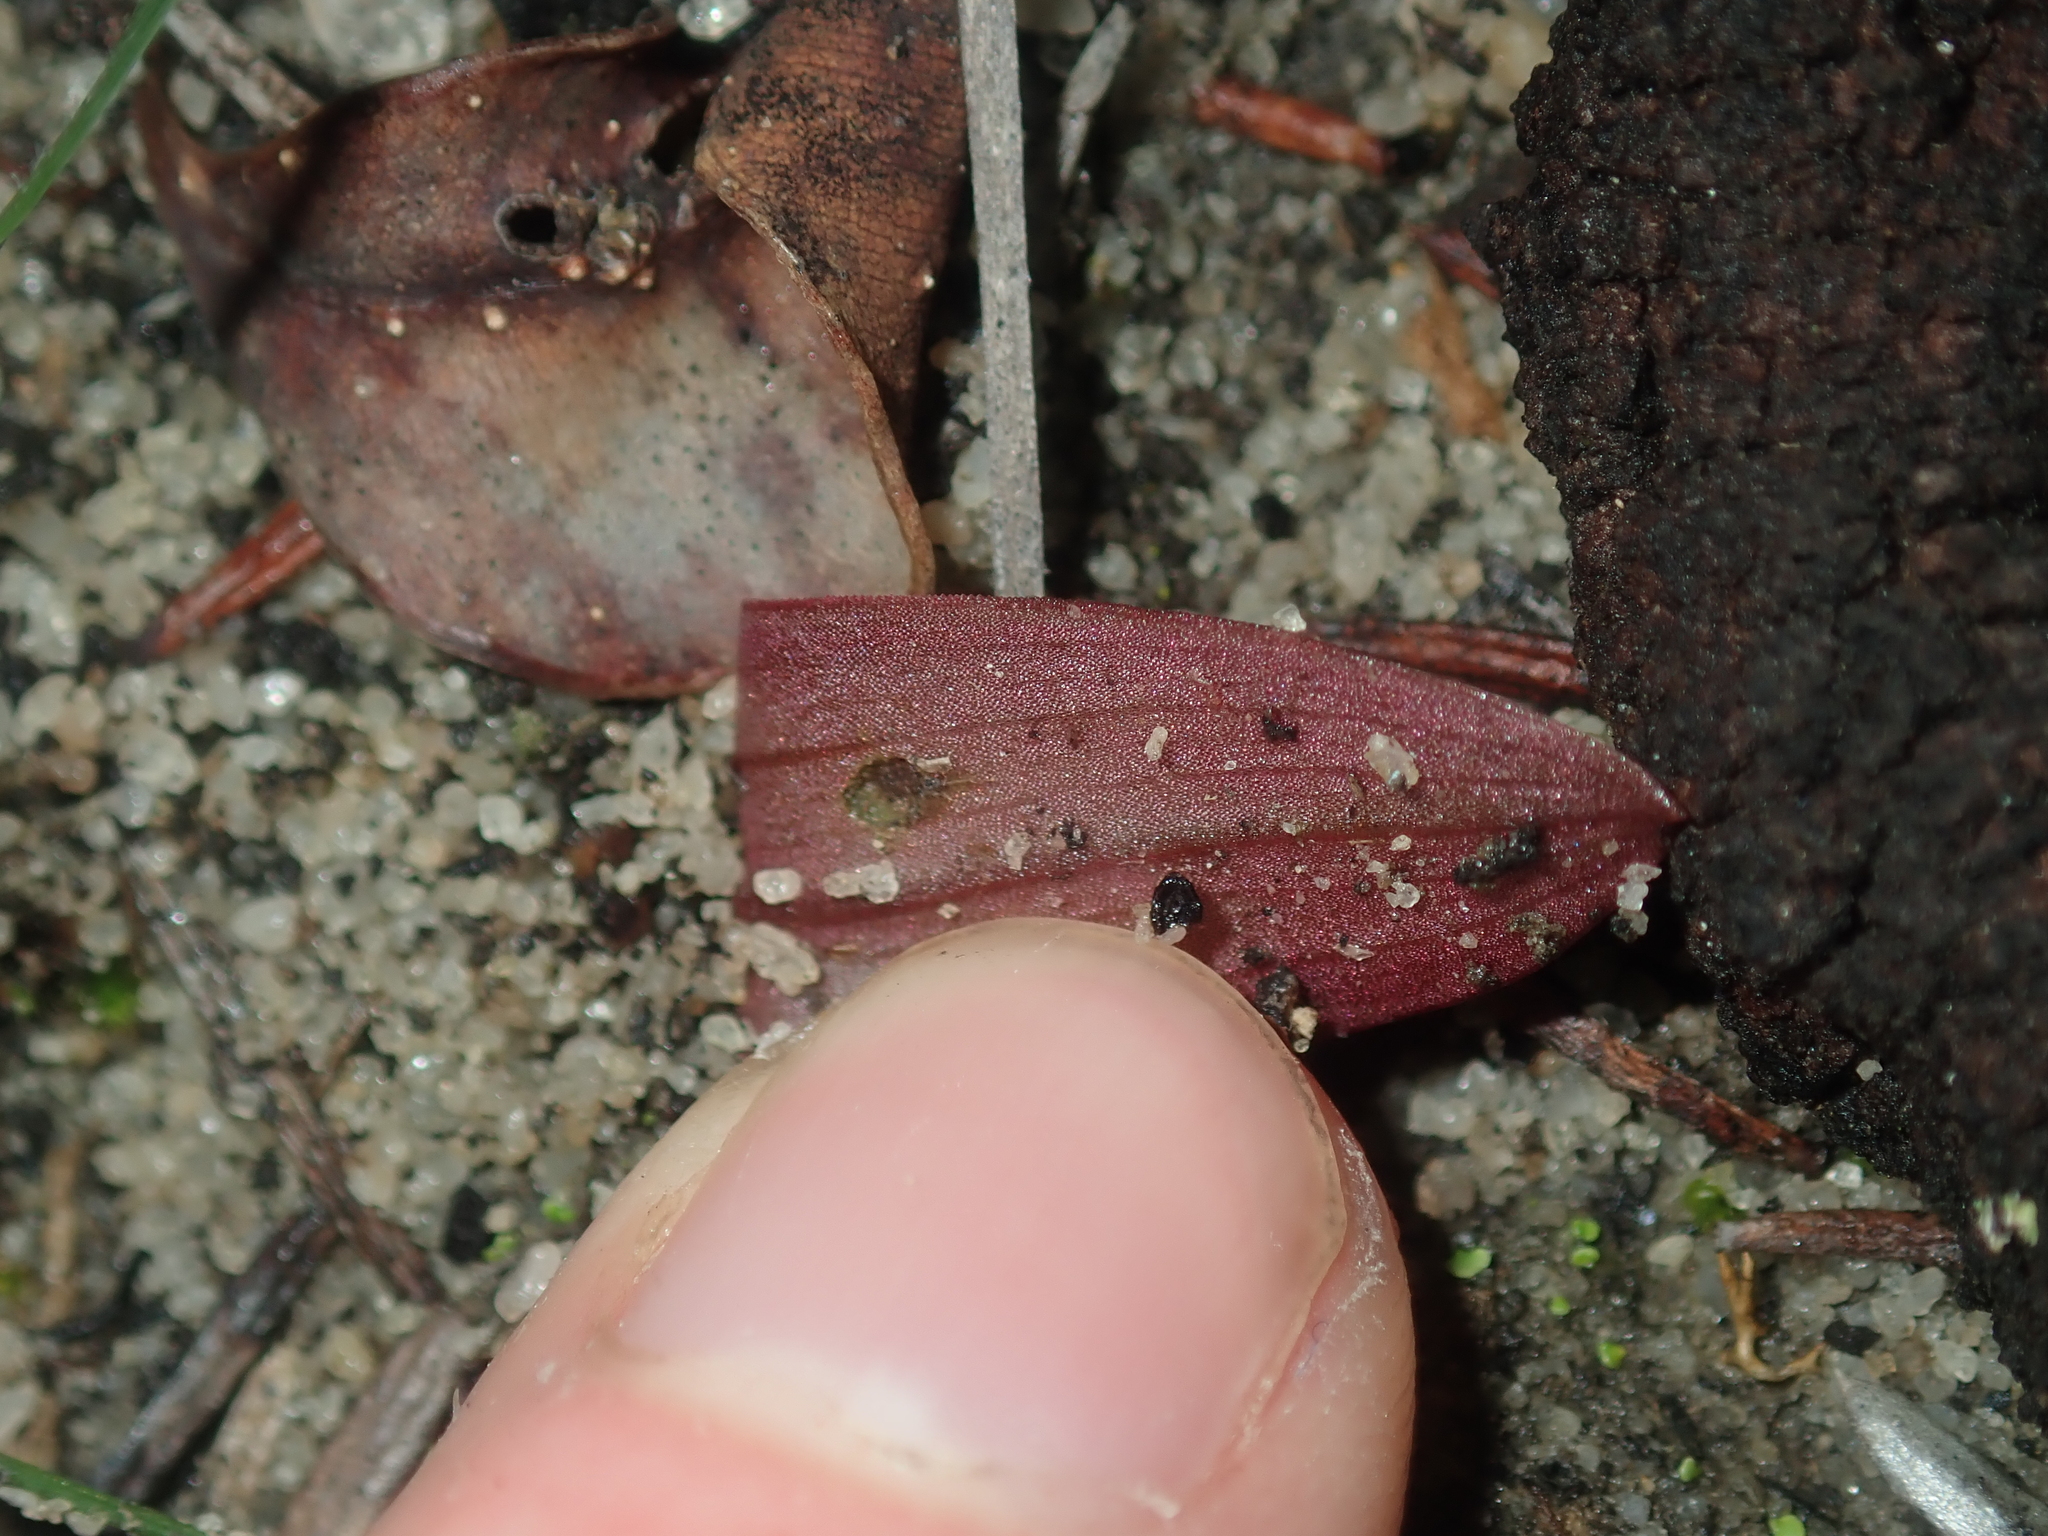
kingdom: Plantae
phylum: Tracheophyta
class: Liliopsida
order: Asparagales
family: Orchidaceae
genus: Leporella
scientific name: Leporella fimbriata
